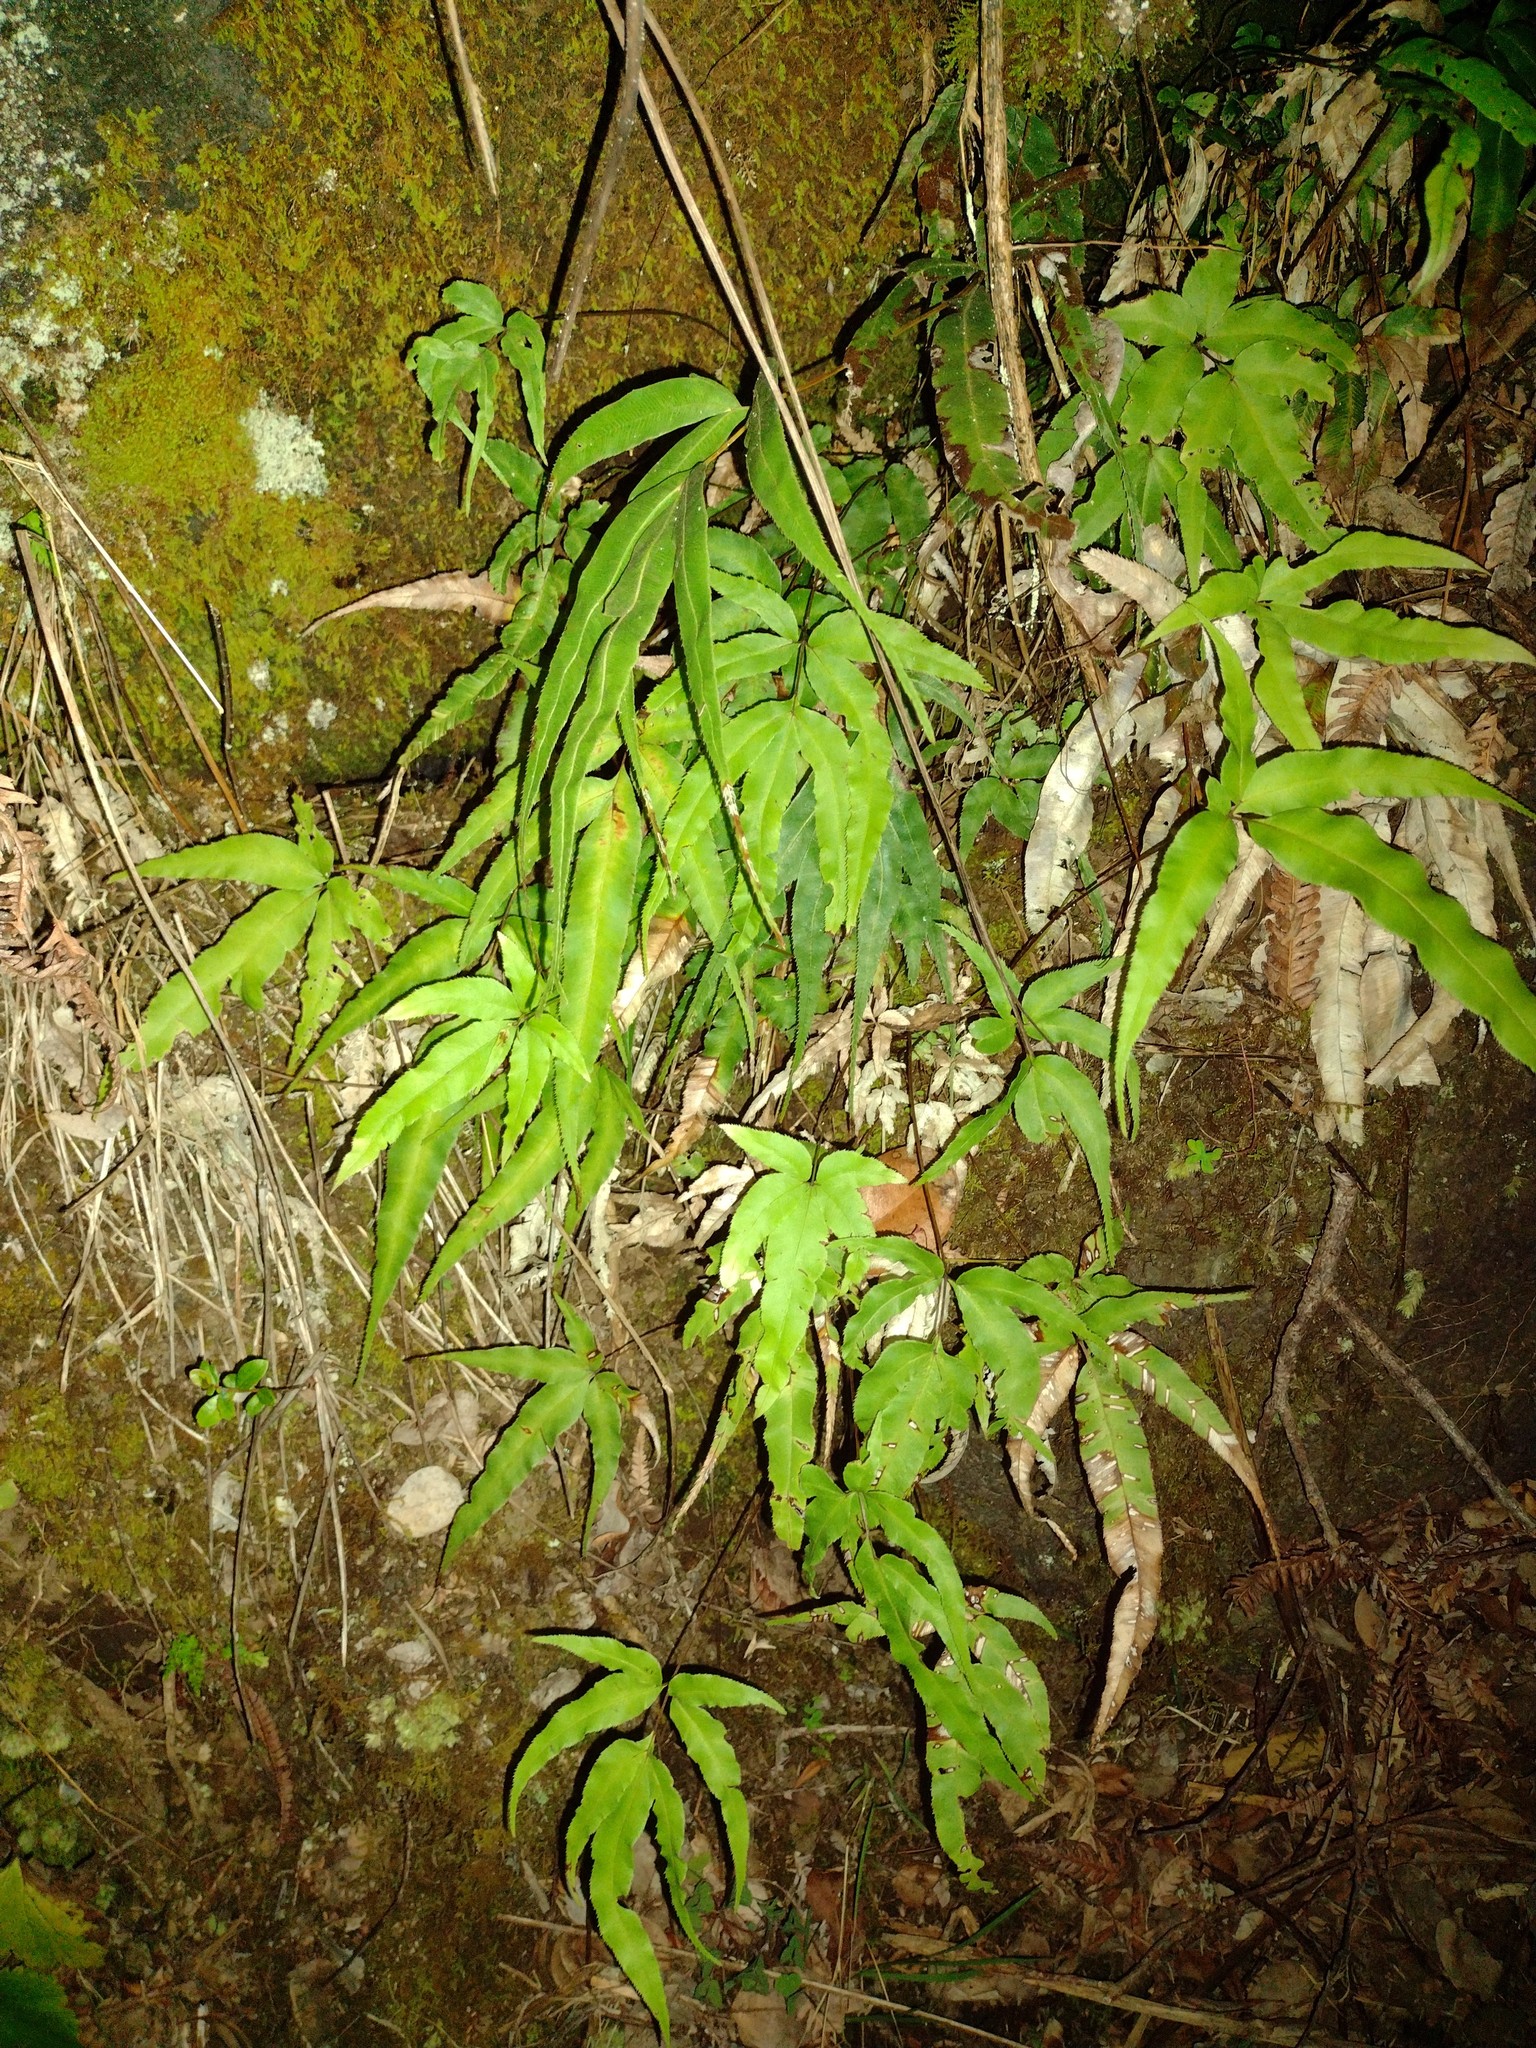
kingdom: Plantae
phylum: Tracheophyta
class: Polypodiopsida
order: Polypodiales
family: Pteridaceae
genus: Pteris
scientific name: Pteris cretica
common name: Ribbon fern
